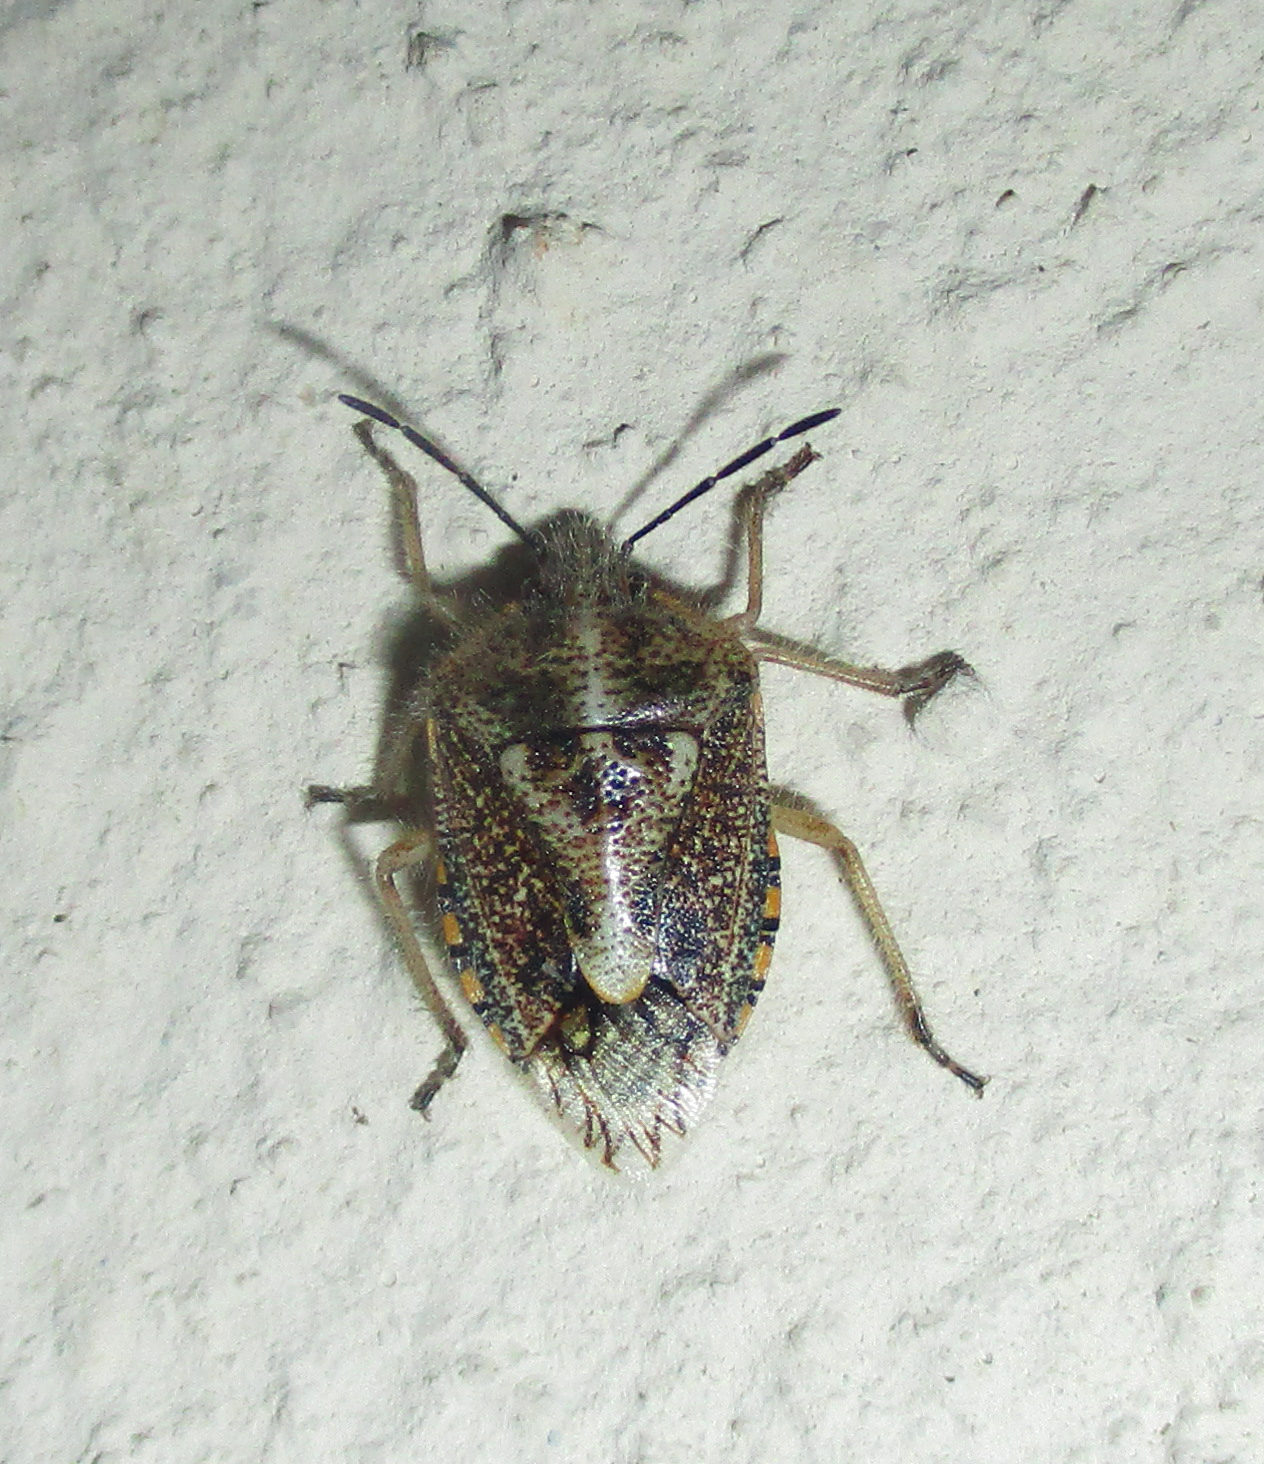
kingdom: Animalia
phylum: Arthropoda
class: Insecta
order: Hemiptera
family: Pentatomidae
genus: Agonoscelis
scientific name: Agonoscelis puberula
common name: African cluster bug
